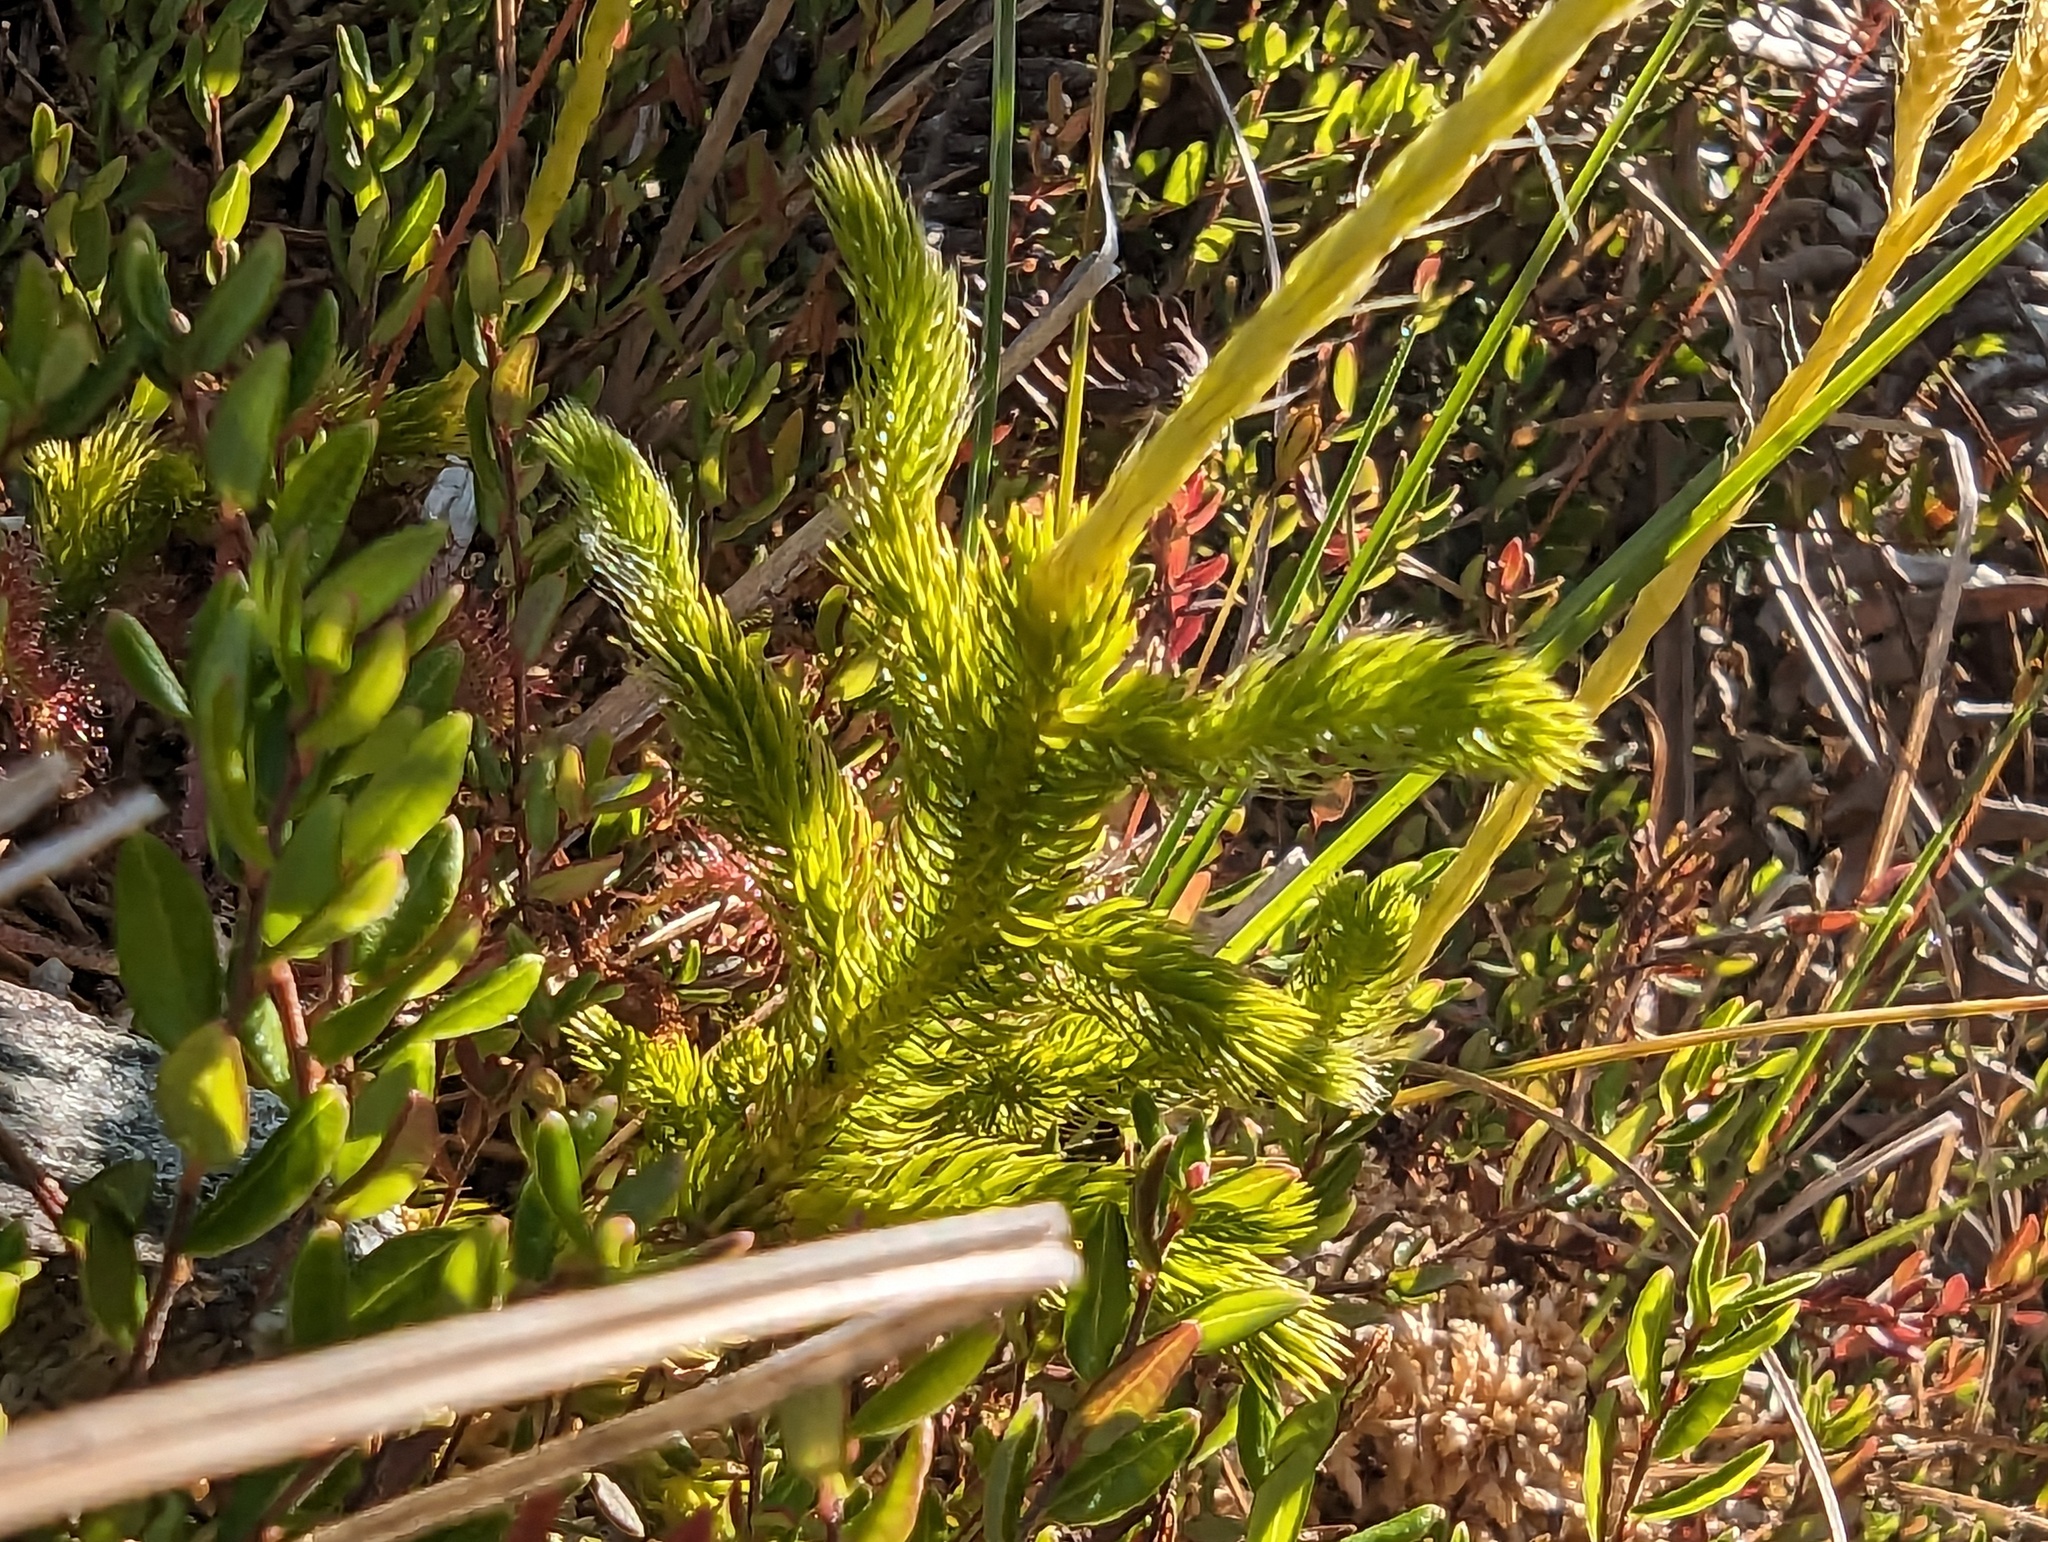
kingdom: Plantae
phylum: Tracheophyta
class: Lycopodiopsida
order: Lycopodiales
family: Lycopodiaceae
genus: Lycopodium
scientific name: Lycopodium clavatum
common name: Stag's-horn clubmoss
